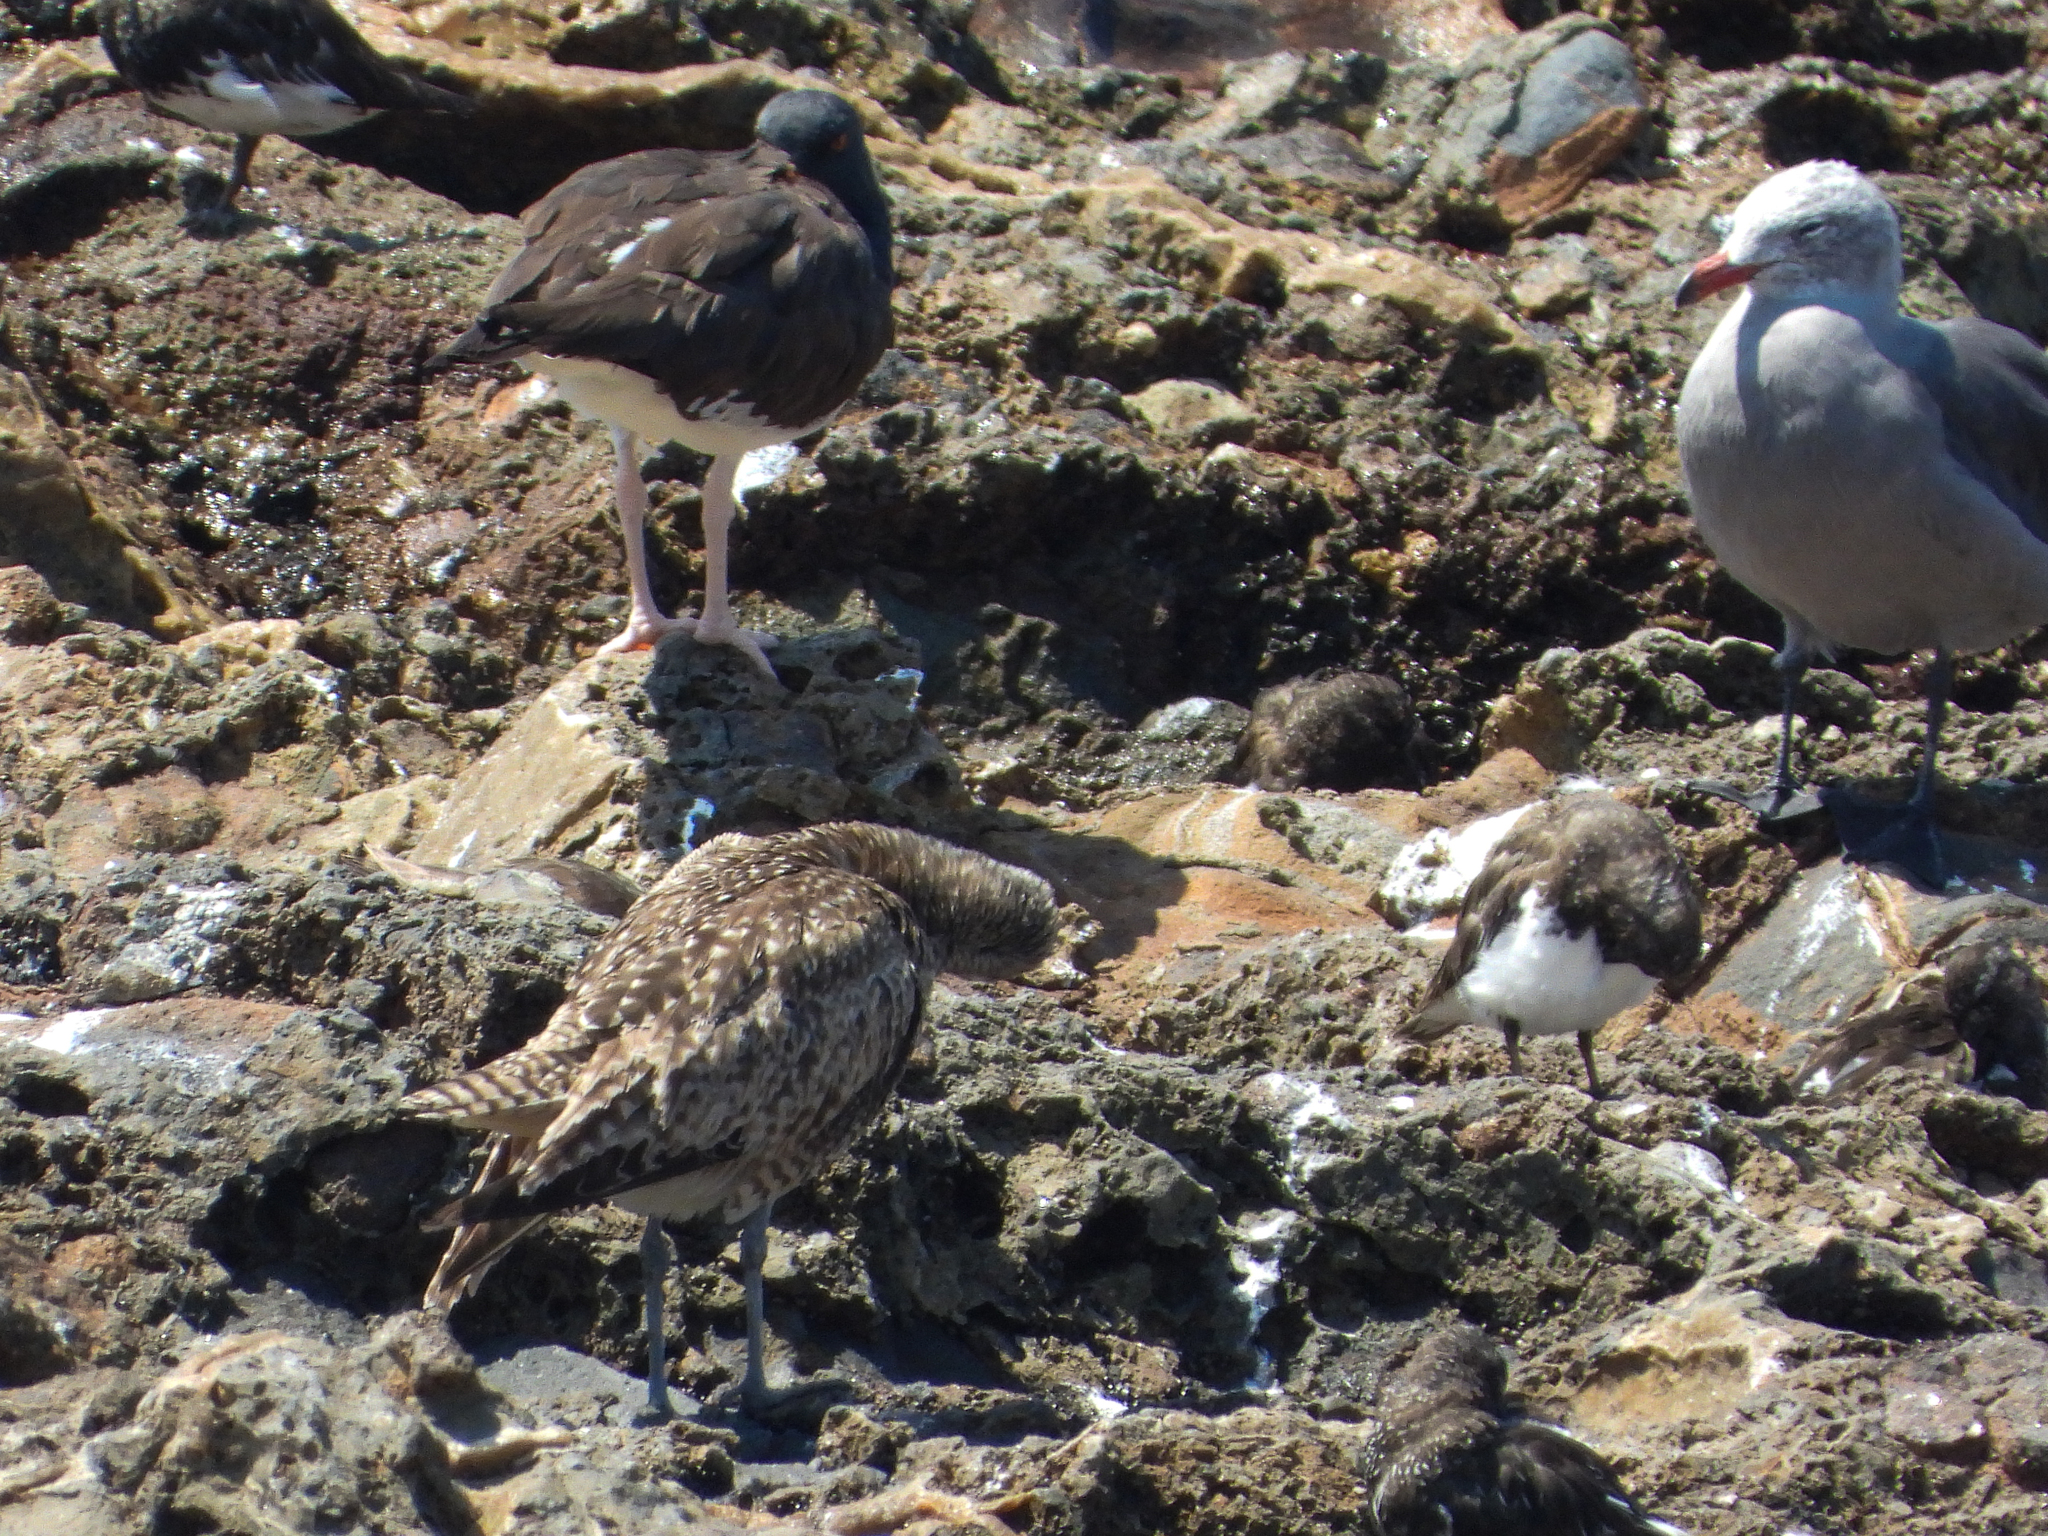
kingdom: Animalia
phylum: Chordata
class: Aves
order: Charadriiformes
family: Laridae
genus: Larus
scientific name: Larus heermanni
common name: Heermann's gull
